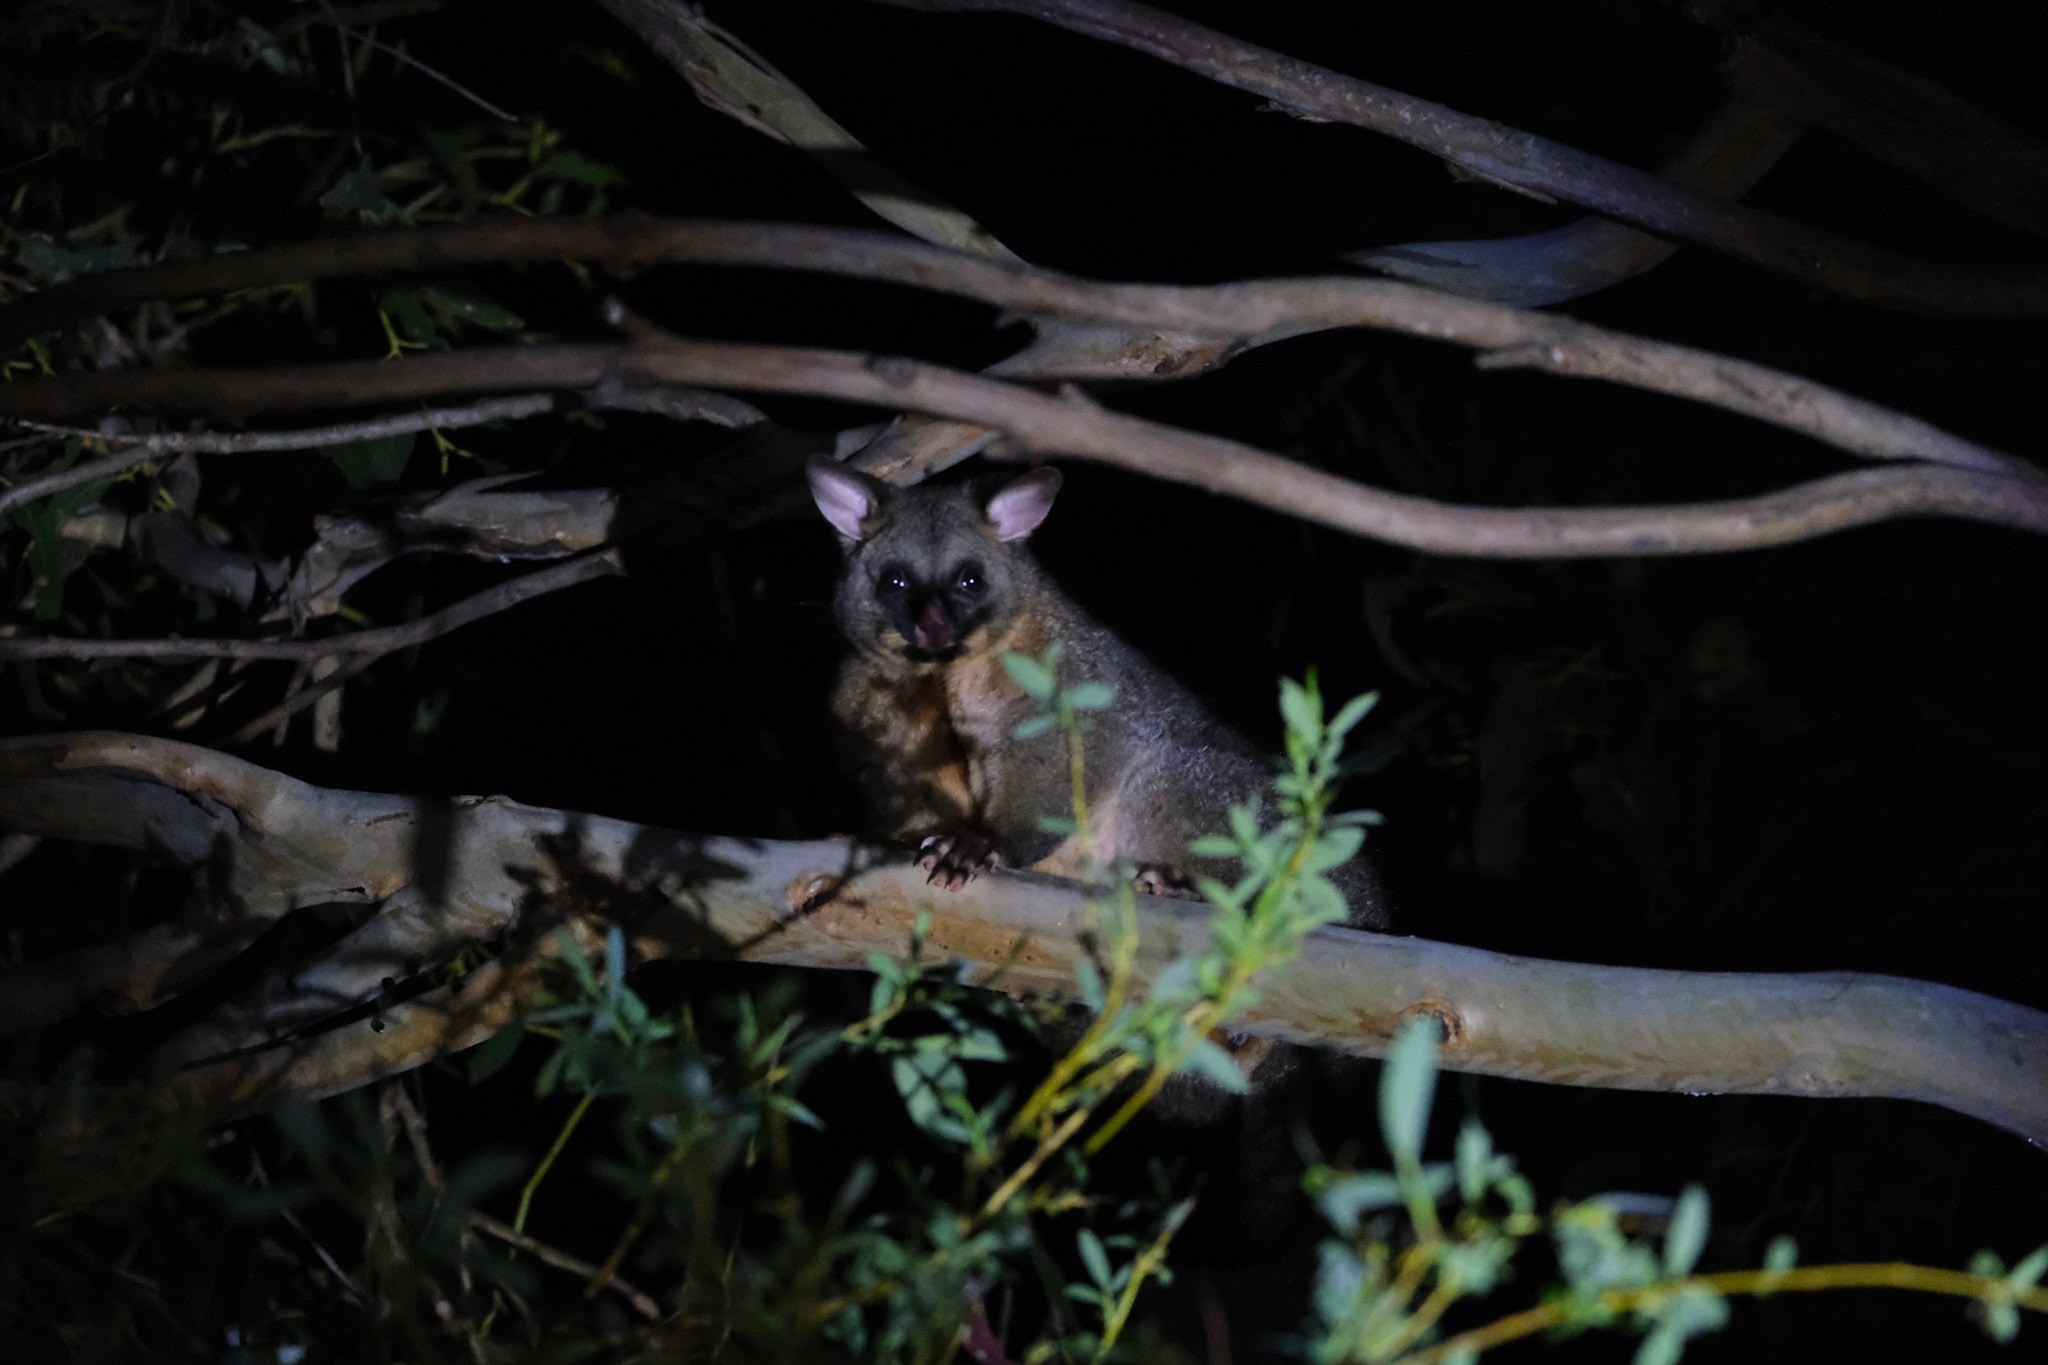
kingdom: Animalia
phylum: Chordata
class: Mammalia
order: Diprotodontia
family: Phalangeridae
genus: Trichosurus
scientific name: Trichosurus vulpecula
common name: Common brushtail
